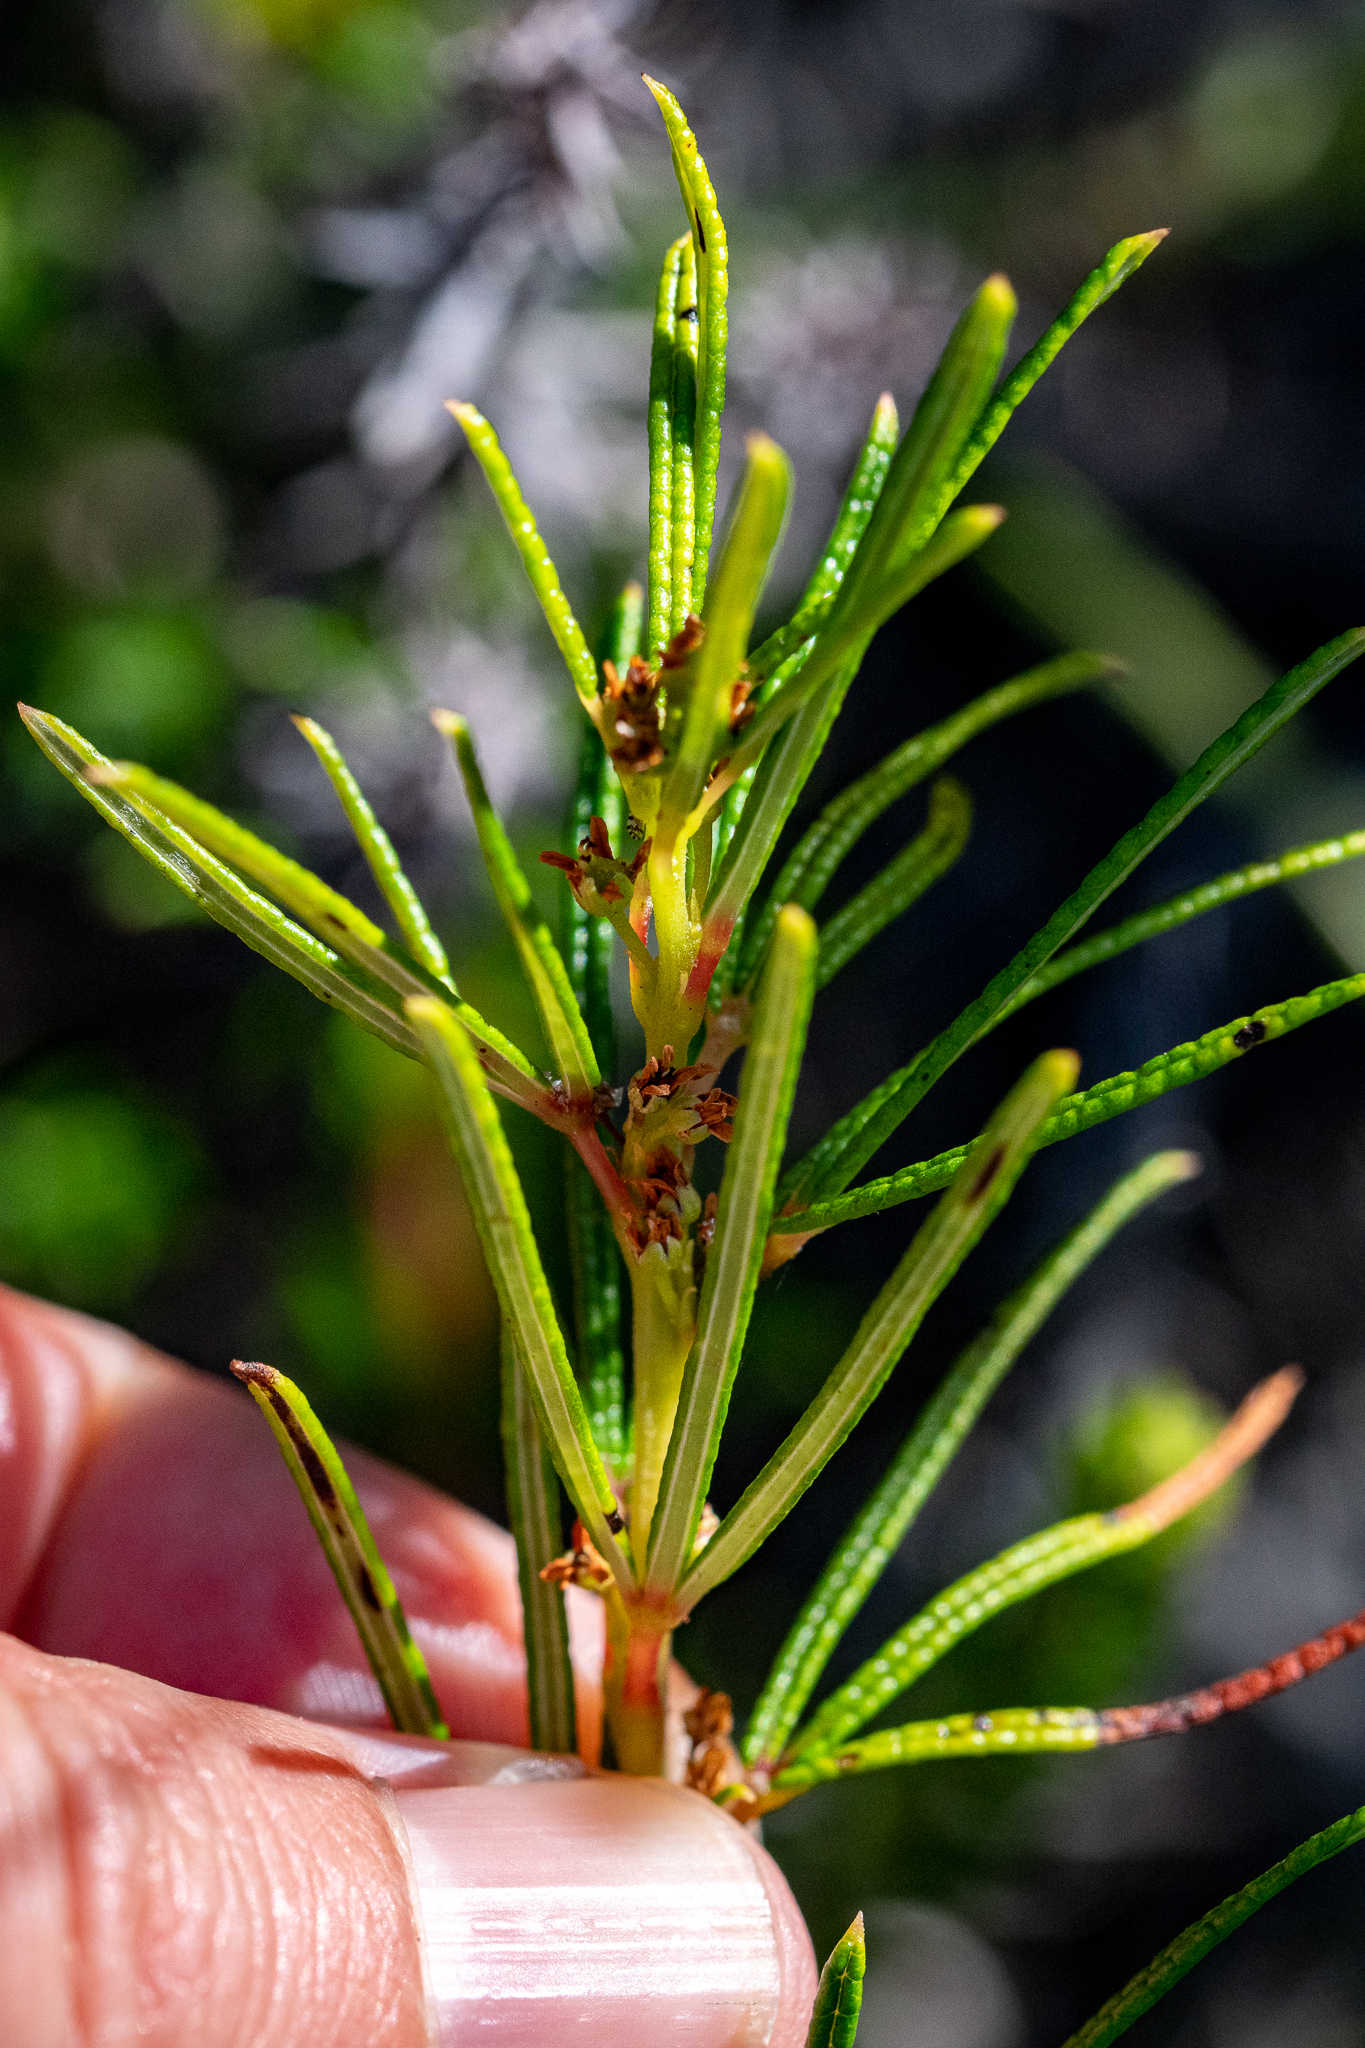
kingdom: Plantae
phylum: Tracheophyta
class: Magnoliopsida
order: Sapindales
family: Anacardiaceae
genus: Searsia
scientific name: Searsia rosmarinifolia
